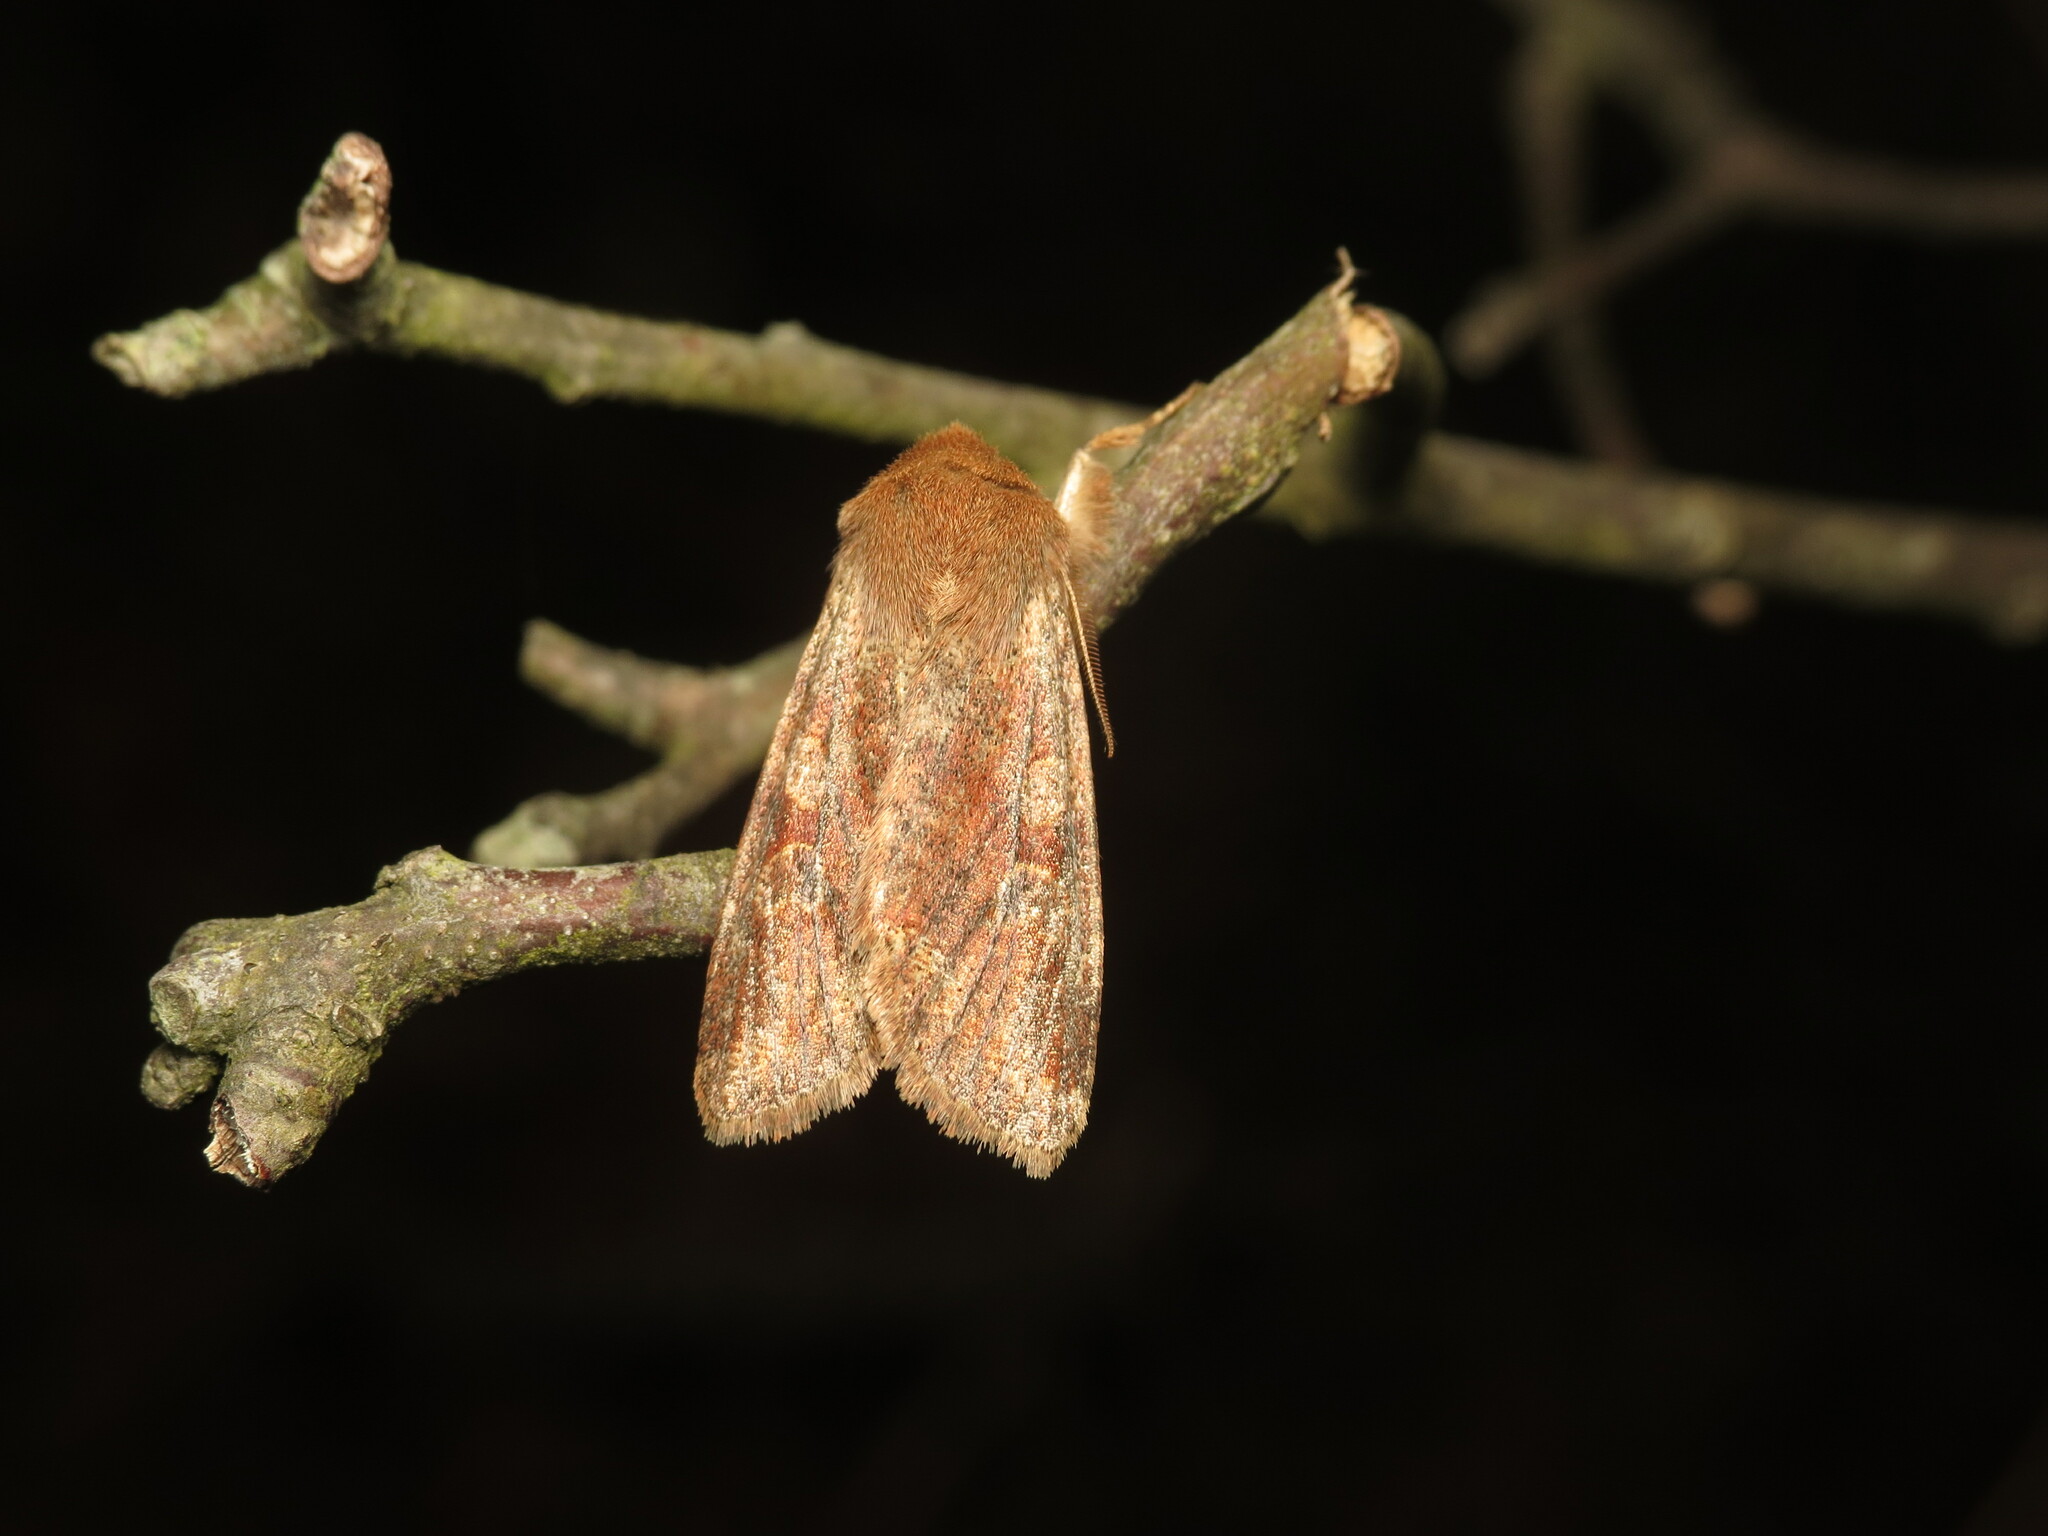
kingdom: Animalia
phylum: Arthropoda
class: Insecta
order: Lepidoptera
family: Noctuidae
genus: Orthosia
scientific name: Orthosia rubescens
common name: Ruby quaker
